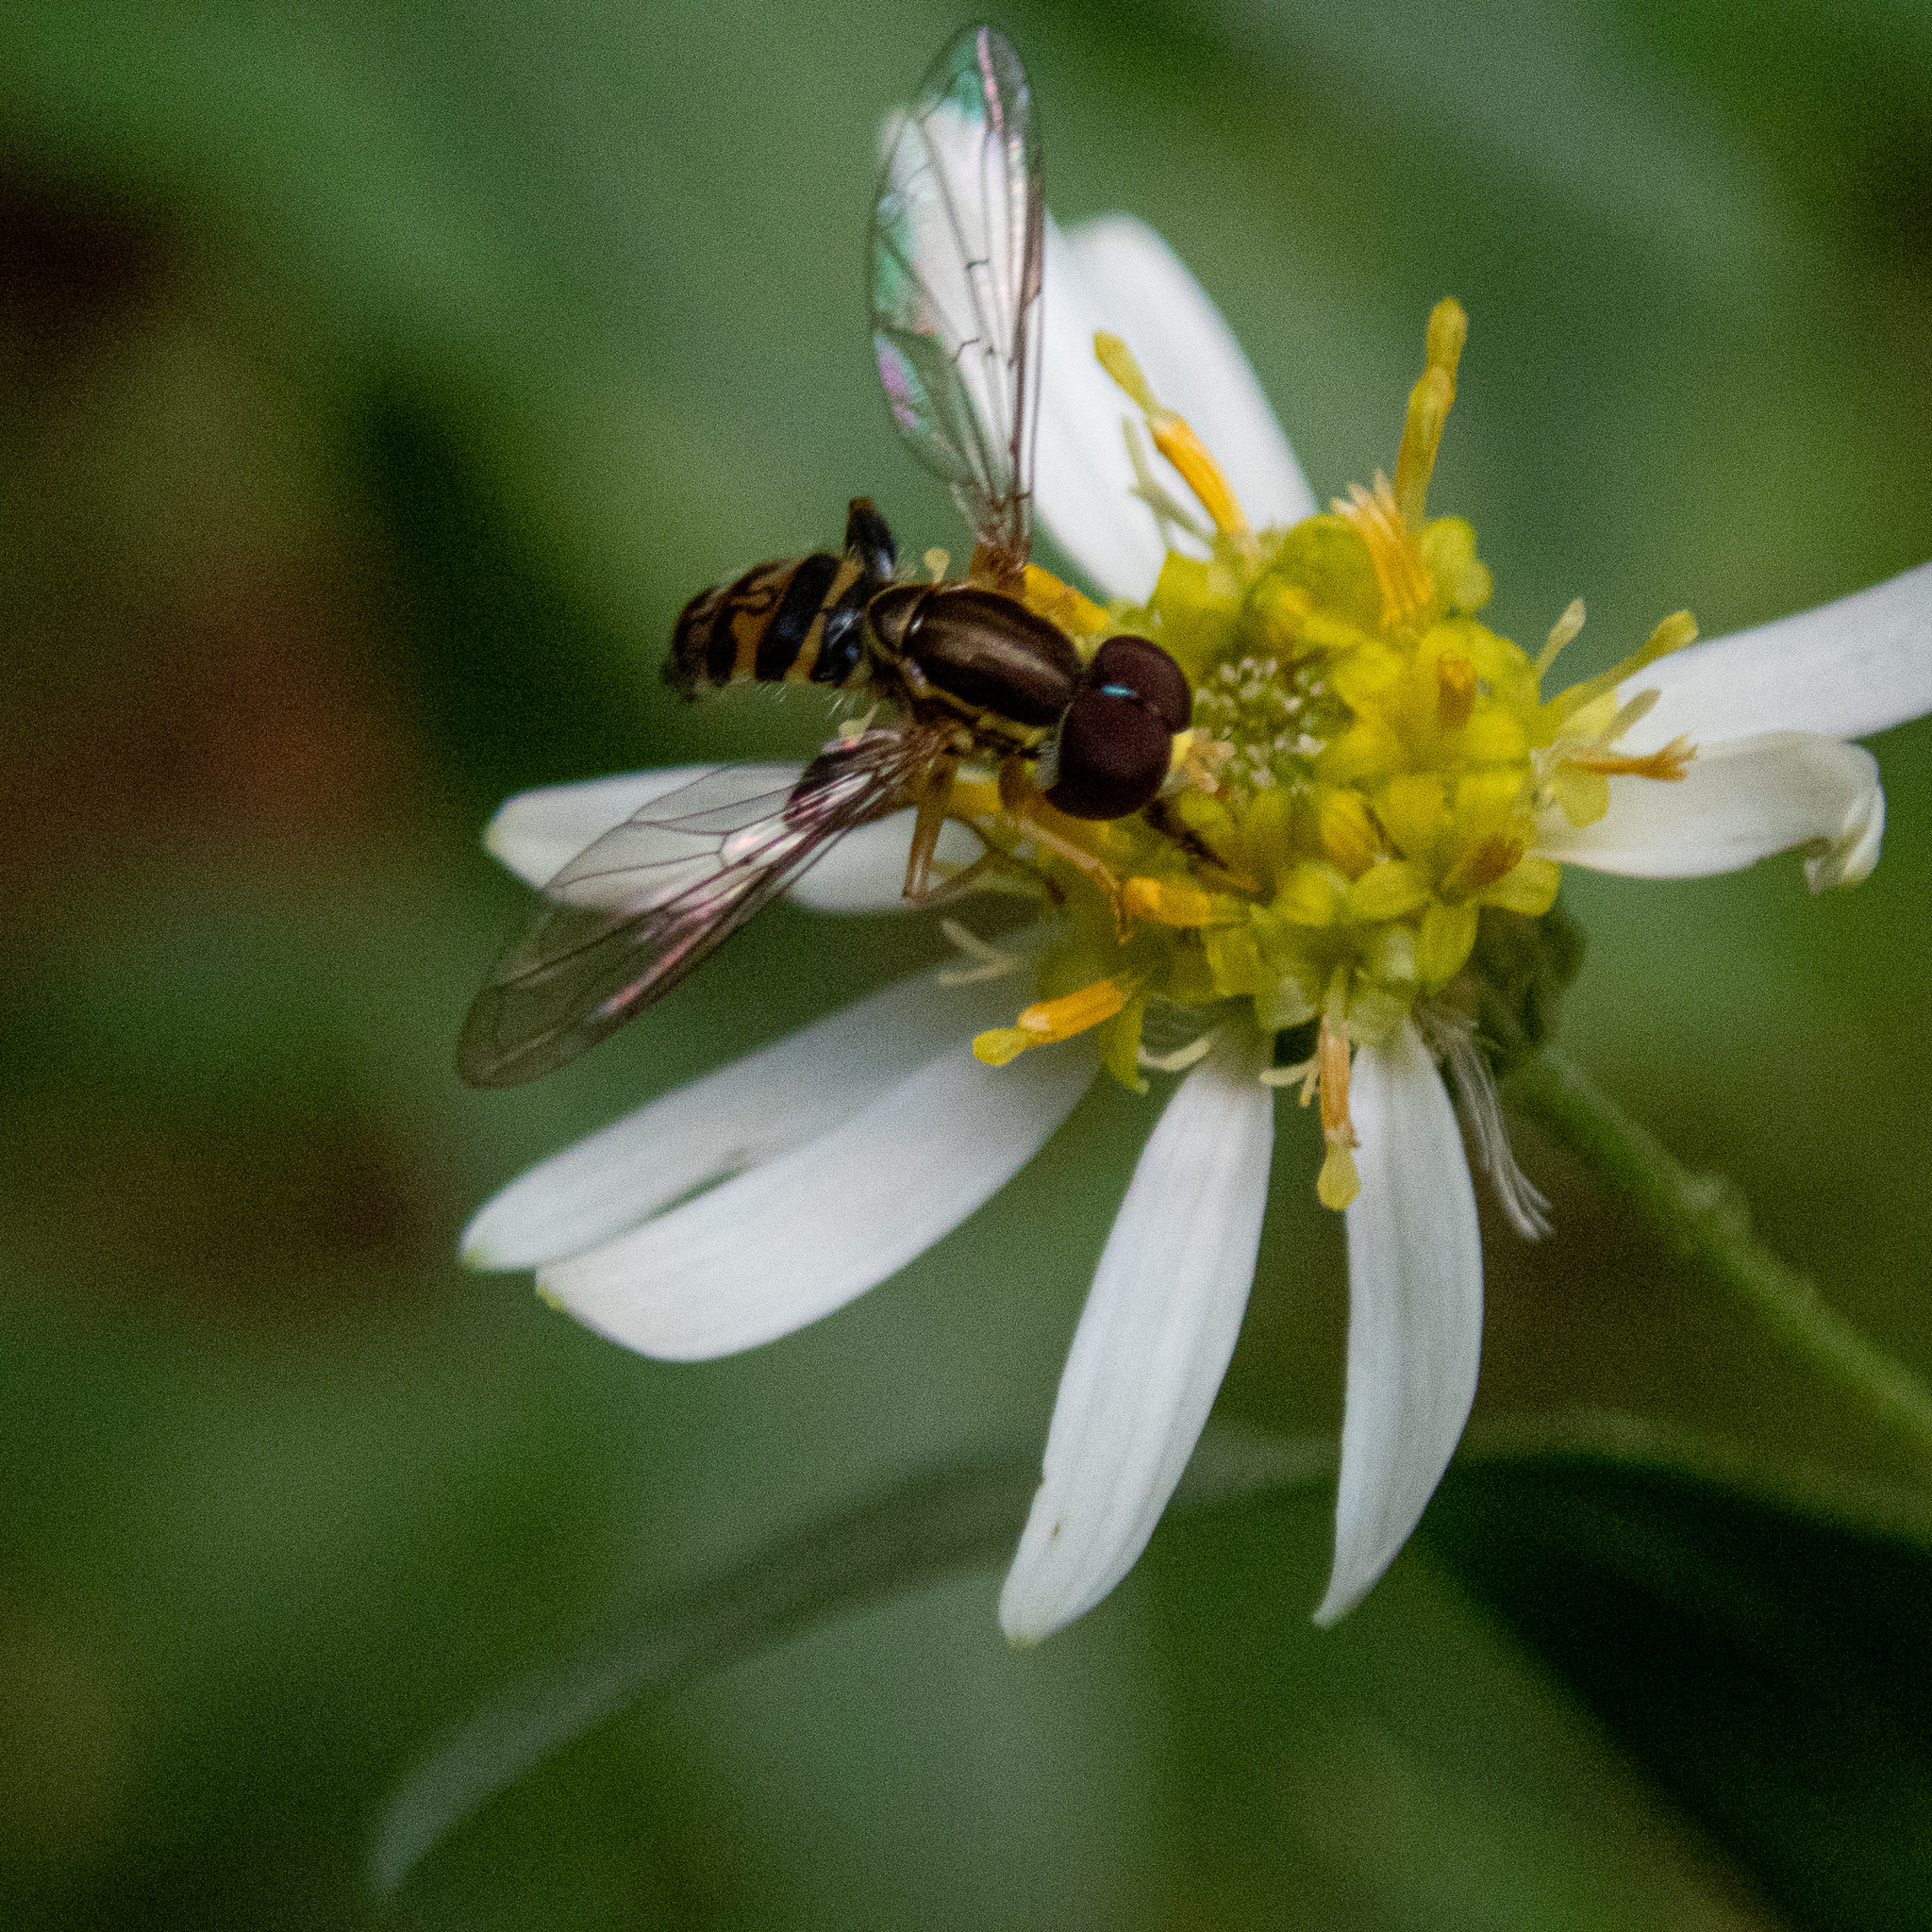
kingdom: Animalia
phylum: Arthropoda
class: Insecta
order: Diptera
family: Syrphidae
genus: Toxomerus
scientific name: Toxomerus geminatus
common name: Eastern calligrapher
